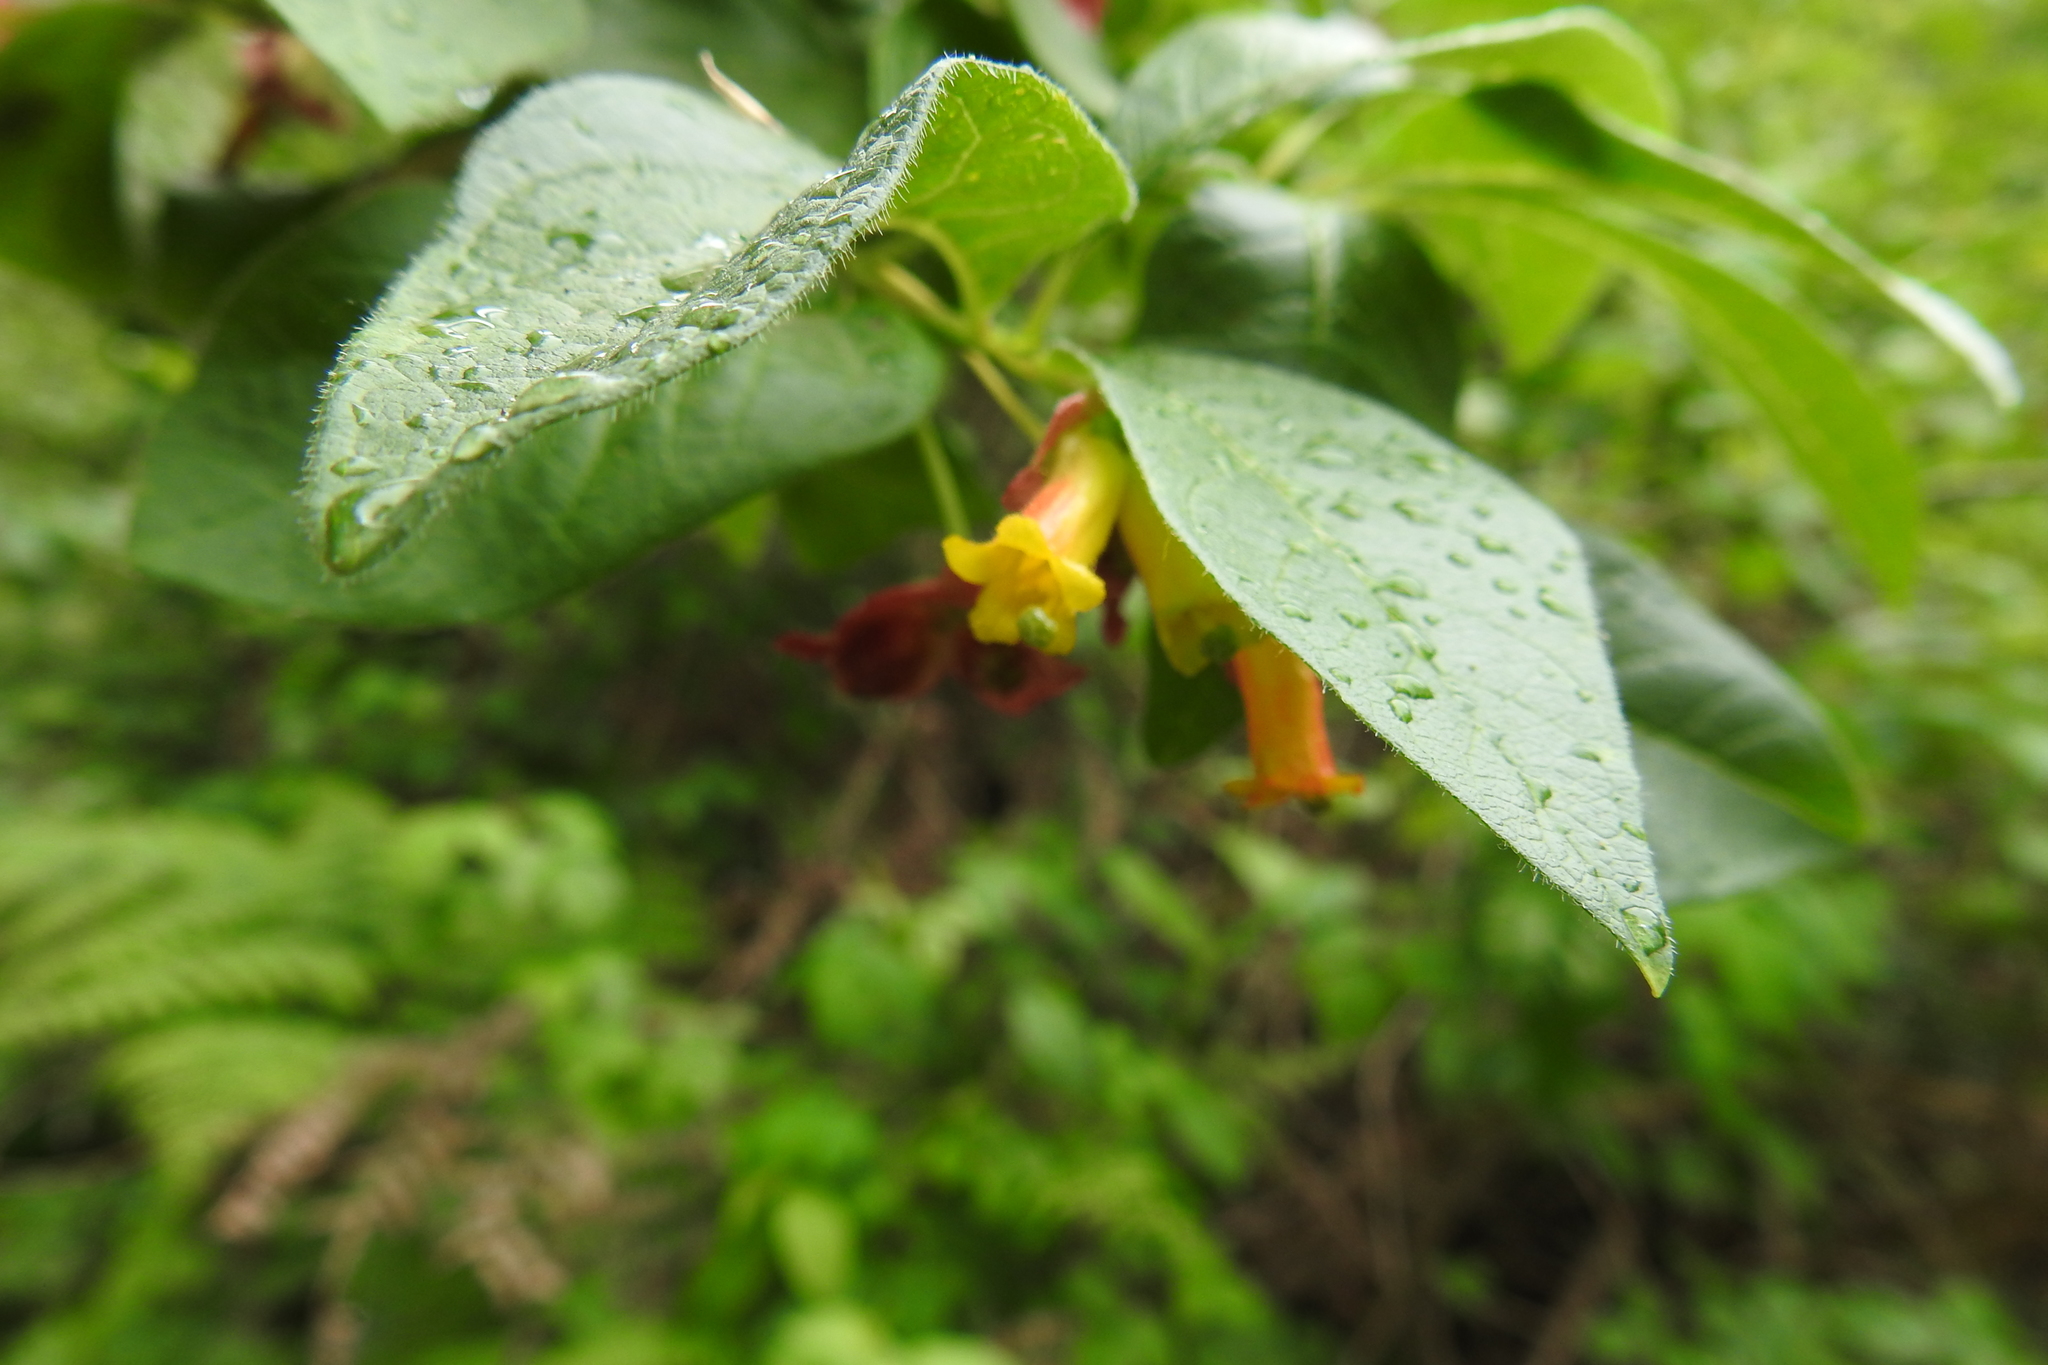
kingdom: Plantae
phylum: Tracheophyta
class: Magnoliopsida
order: Dipsacales
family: Caprifoliaceae
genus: Lonicera
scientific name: Lonicera involucrata
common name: Californian honeysuckle
